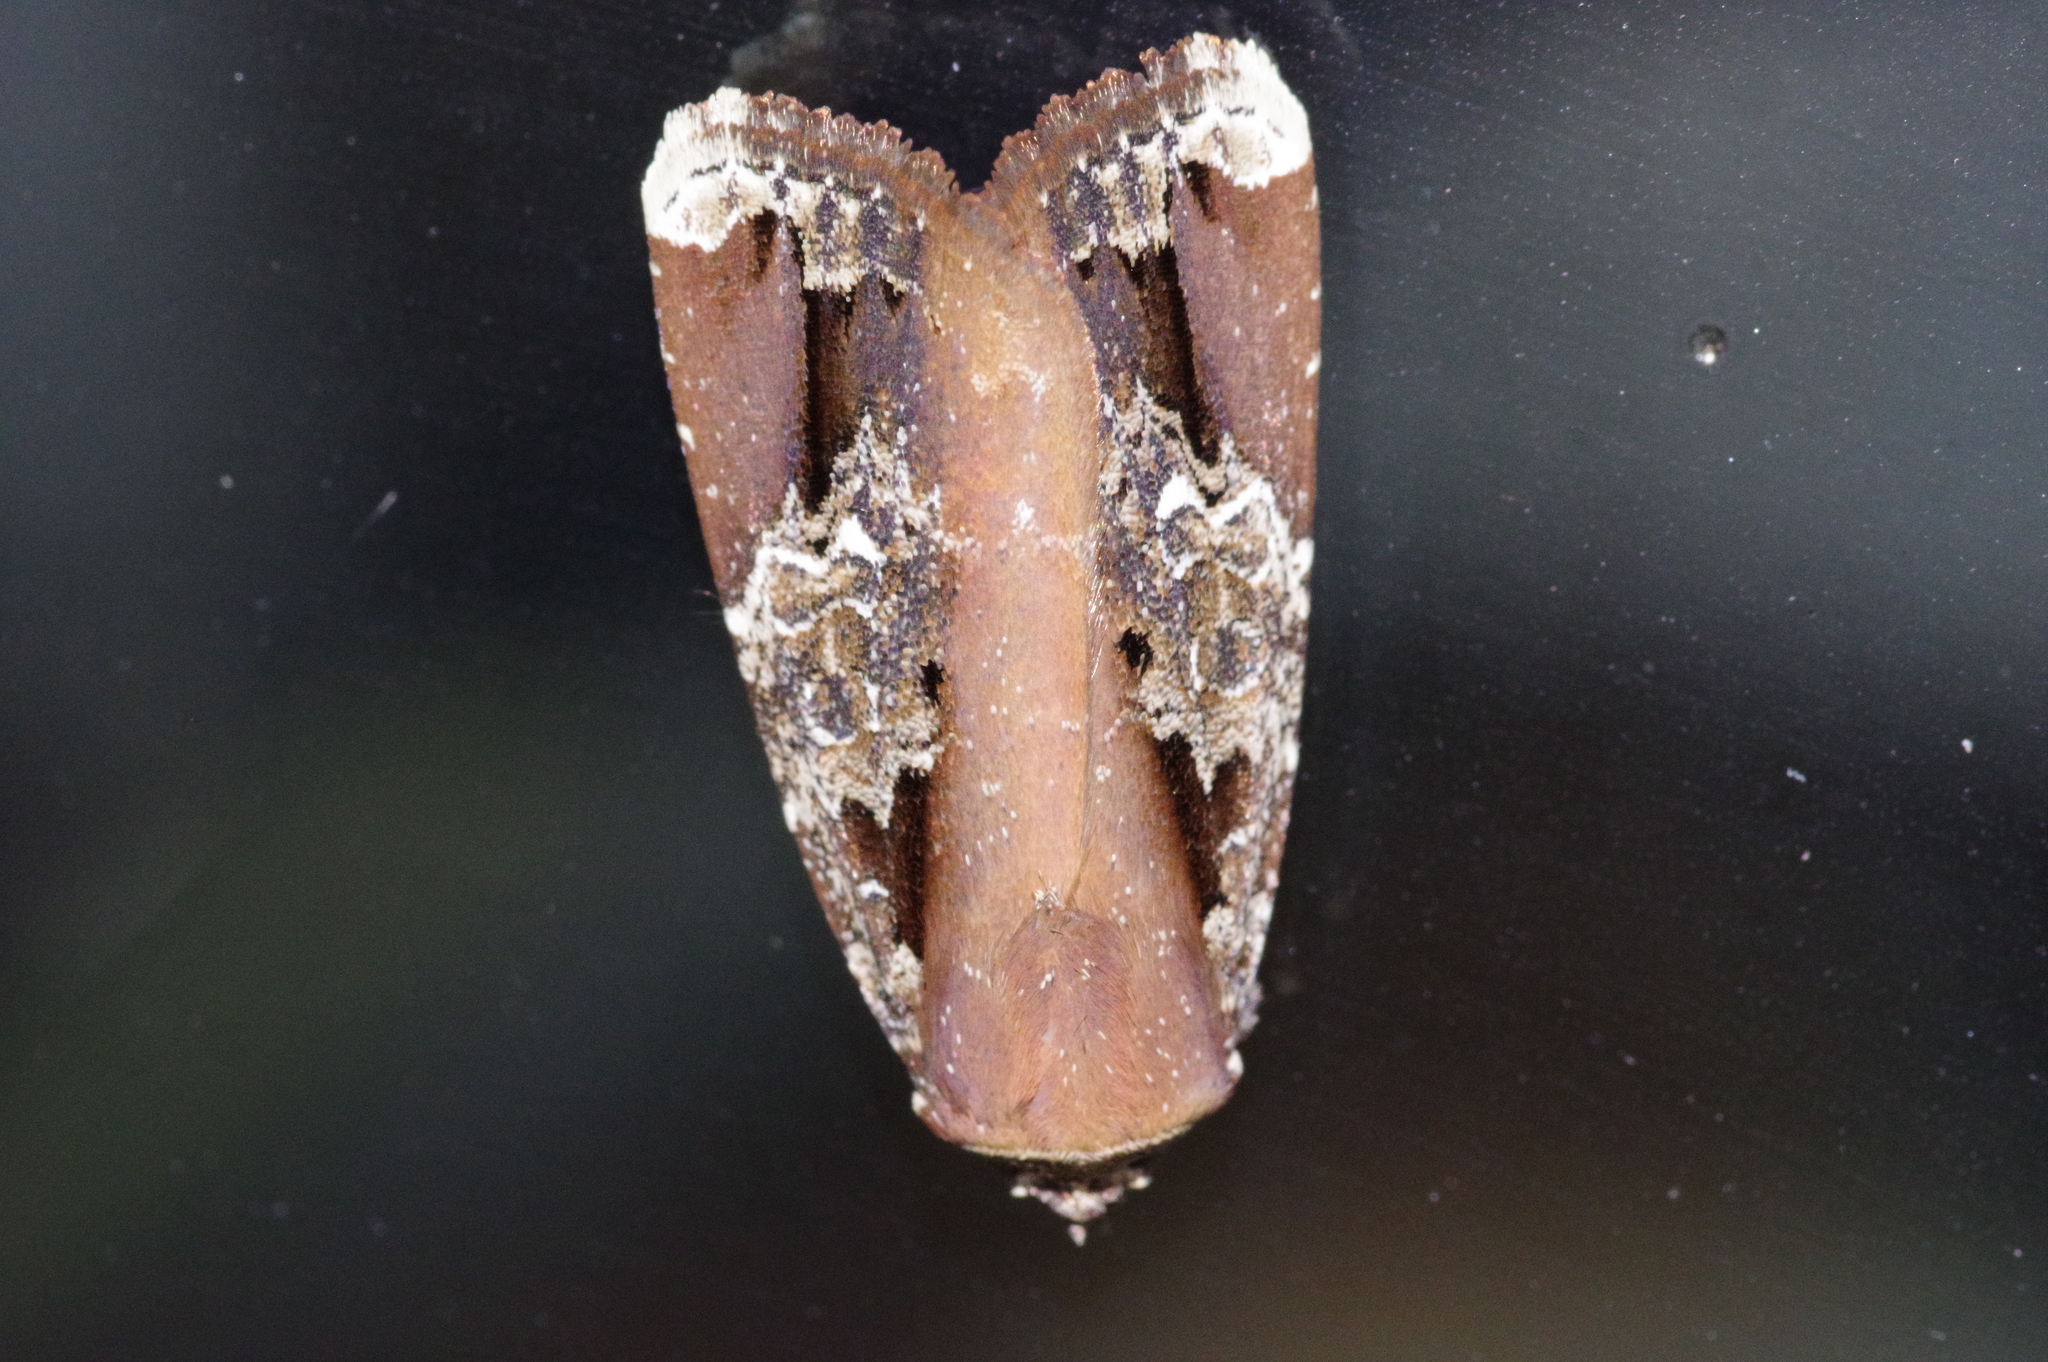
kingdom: Animalia
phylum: Arthropoda
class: Insecta
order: Lepidoptera
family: Noctuidae
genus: Callyna
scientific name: Callyna contracta
